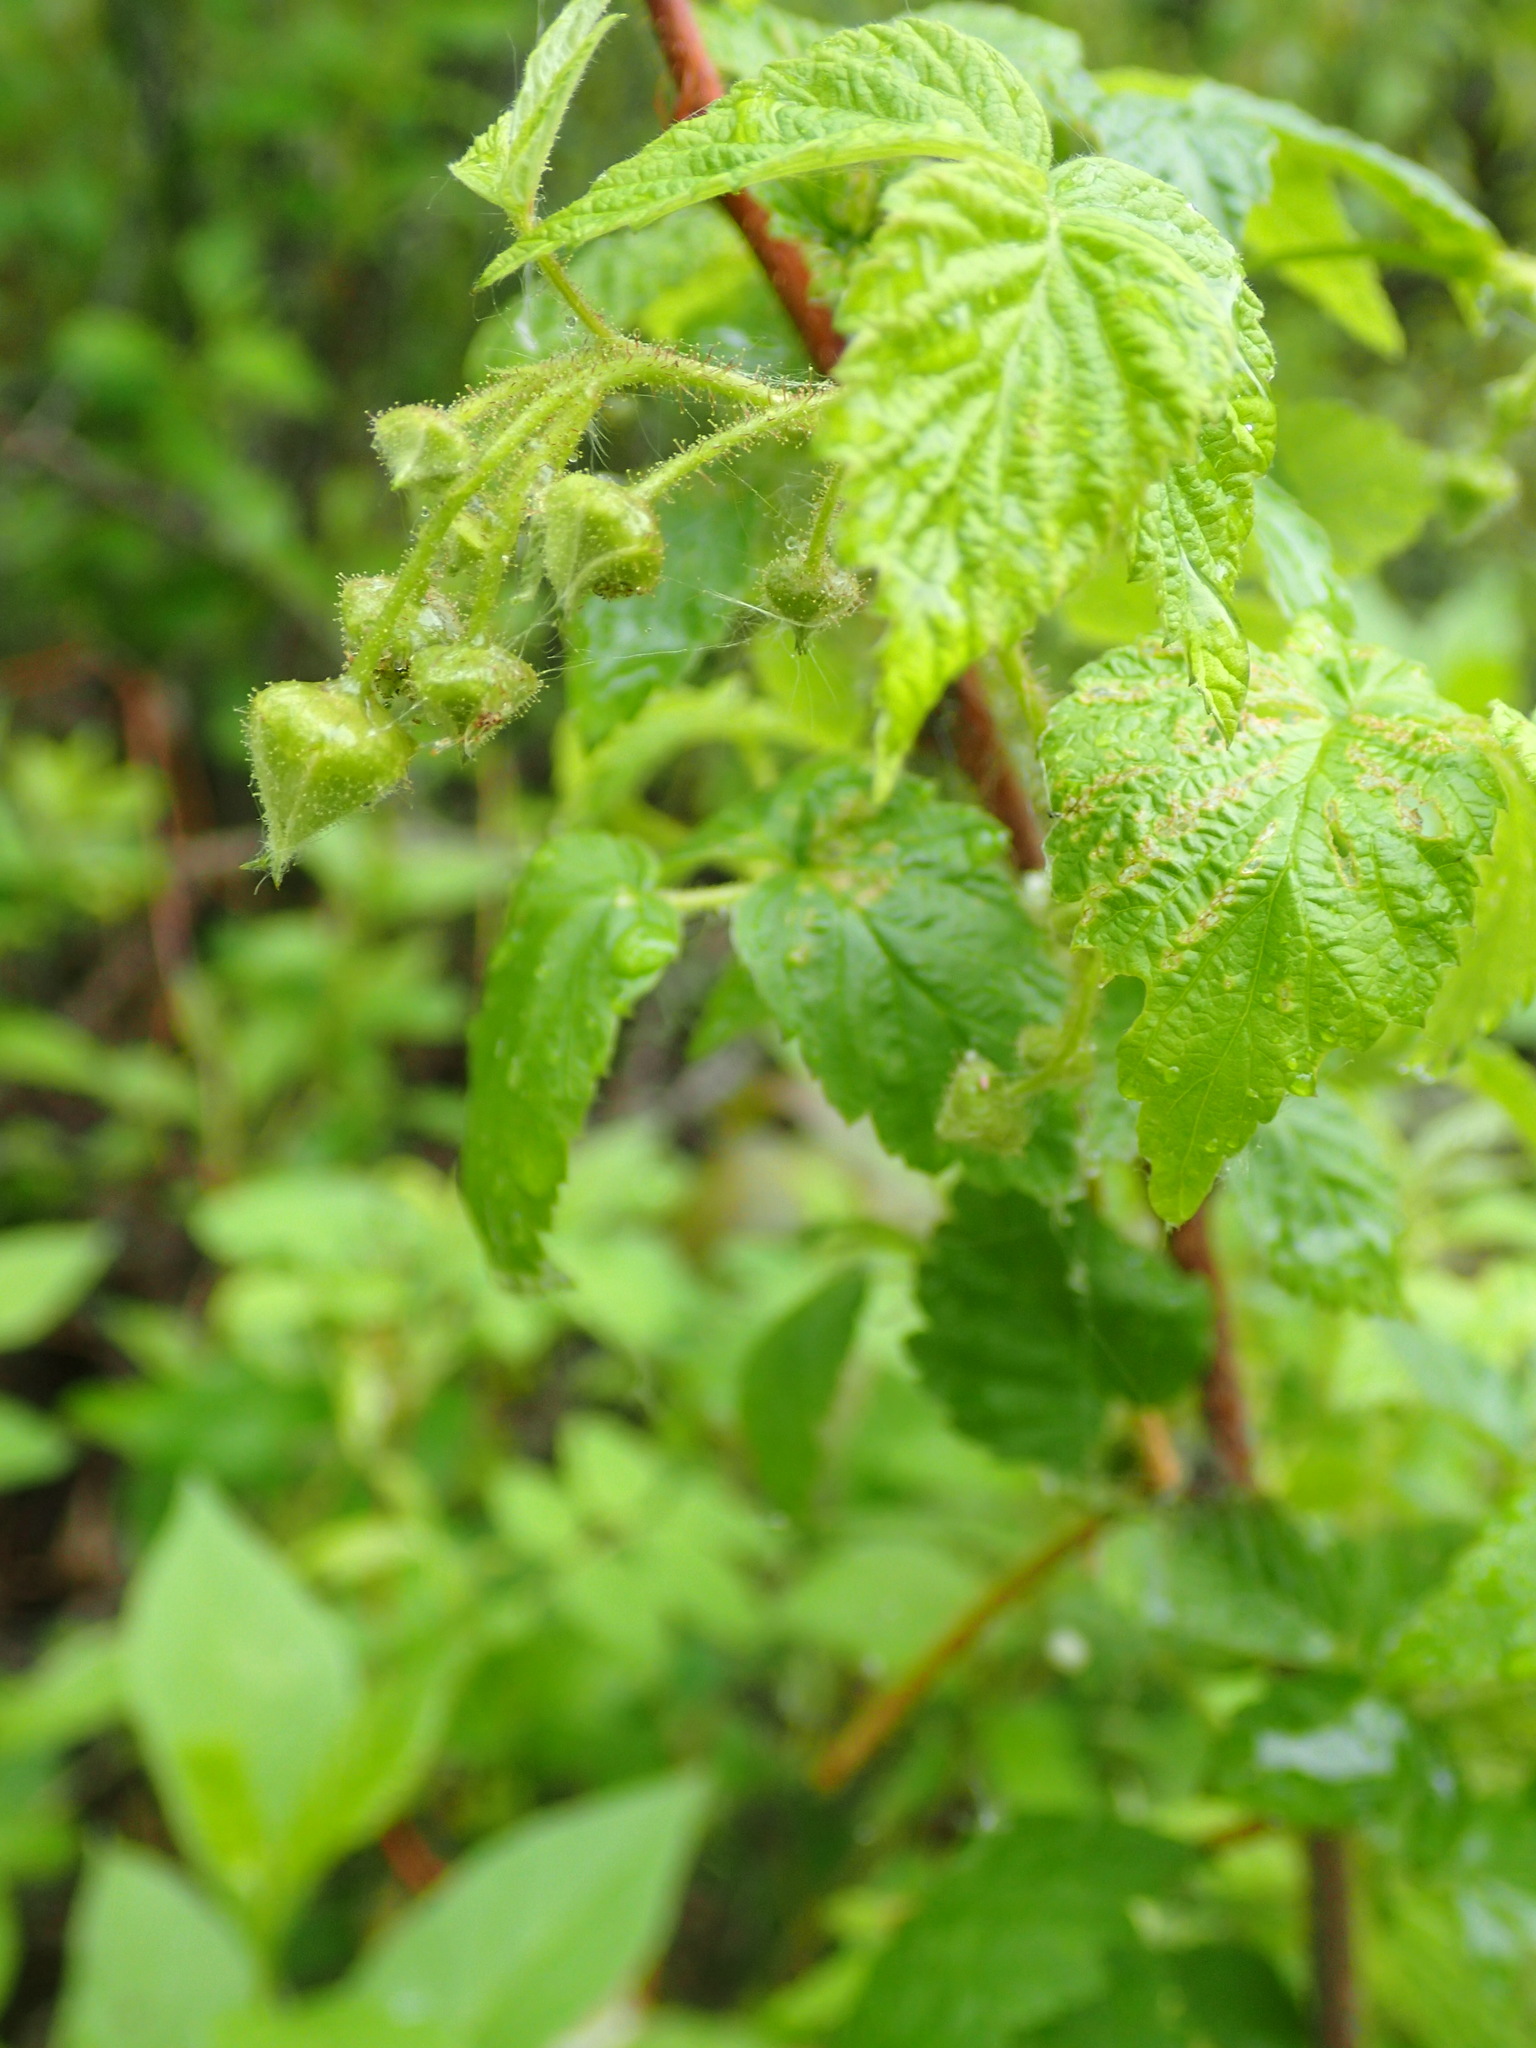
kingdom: Plantae
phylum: Tracheophyta
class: Magnoliopsida
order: Rosales
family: Rosaceae
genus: Rubus
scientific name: Rubus idaeus
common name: Raspberry
